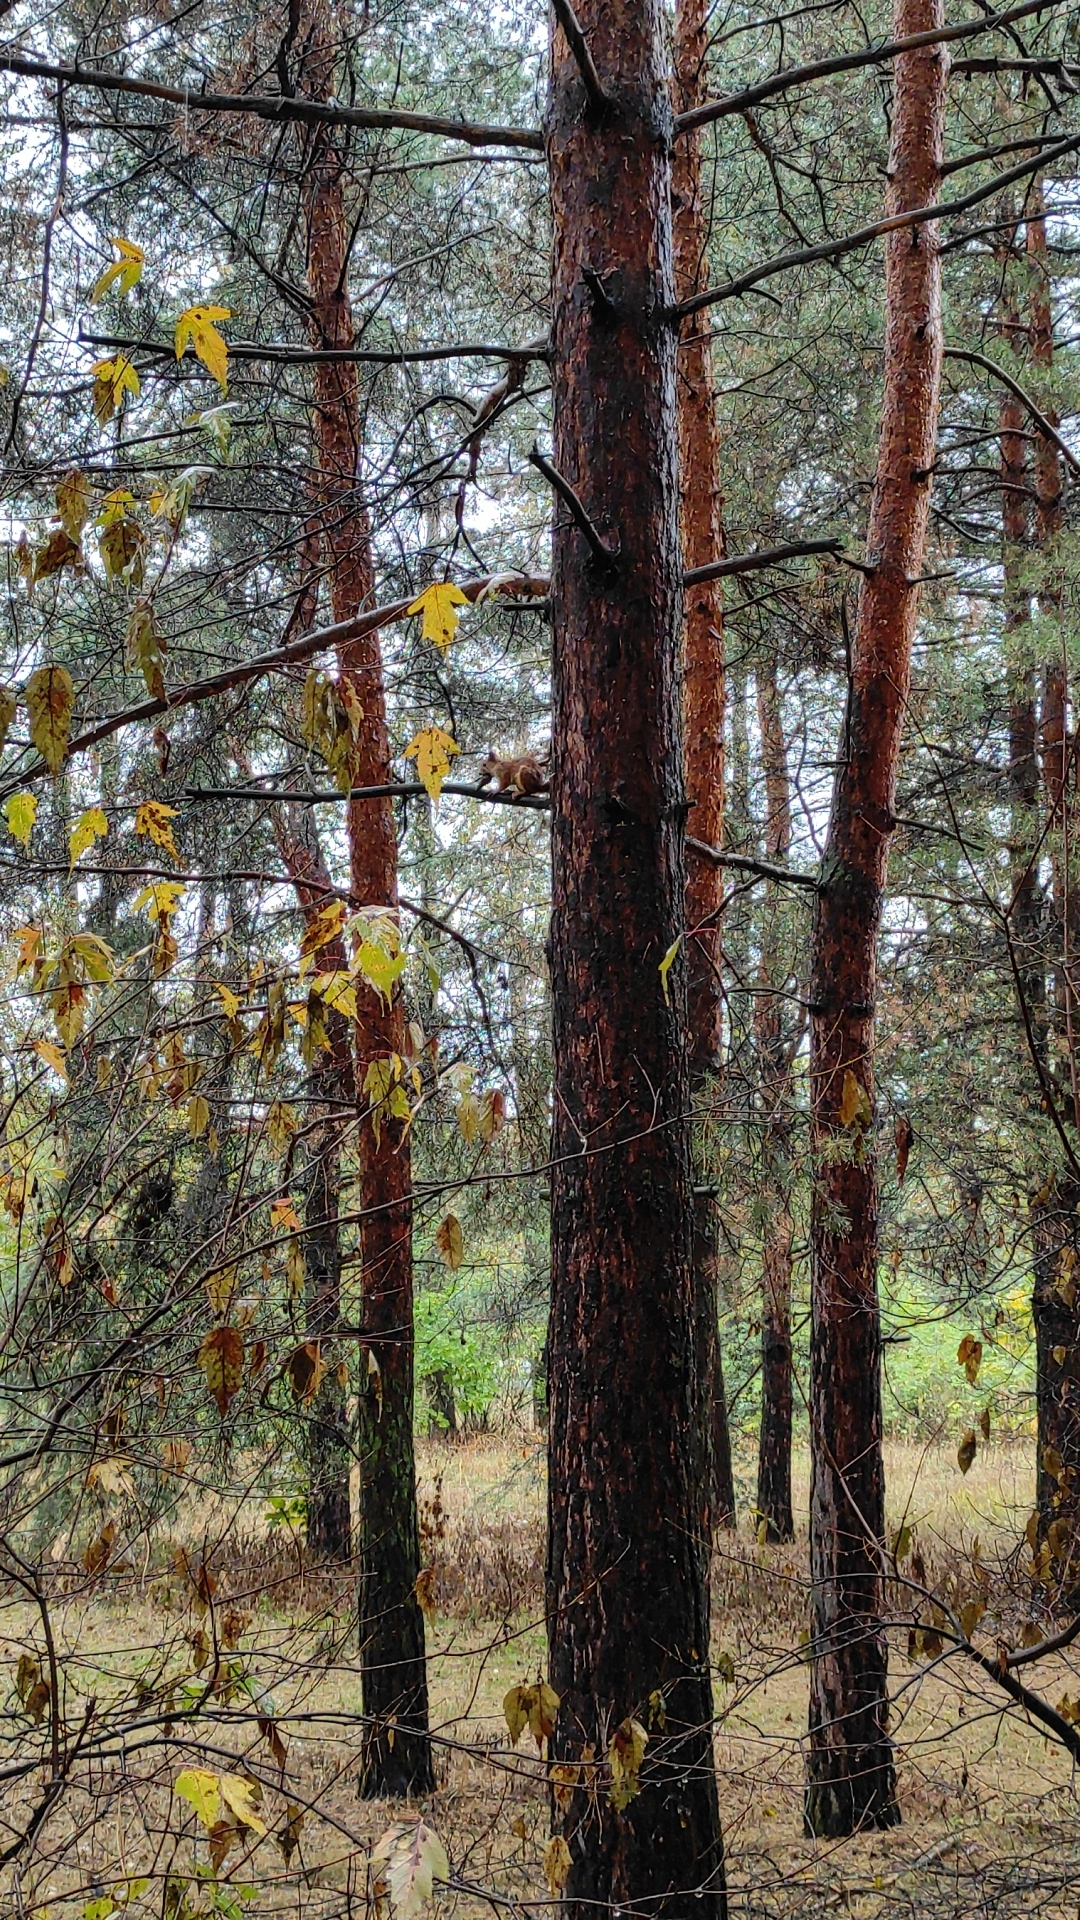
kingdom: Animalia
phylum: Chordata
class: Mammalia
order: Rodentia
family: Sciuridae
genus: Sciurus
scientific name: Sciurus vulgaris
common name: Eurasian red squirrel
